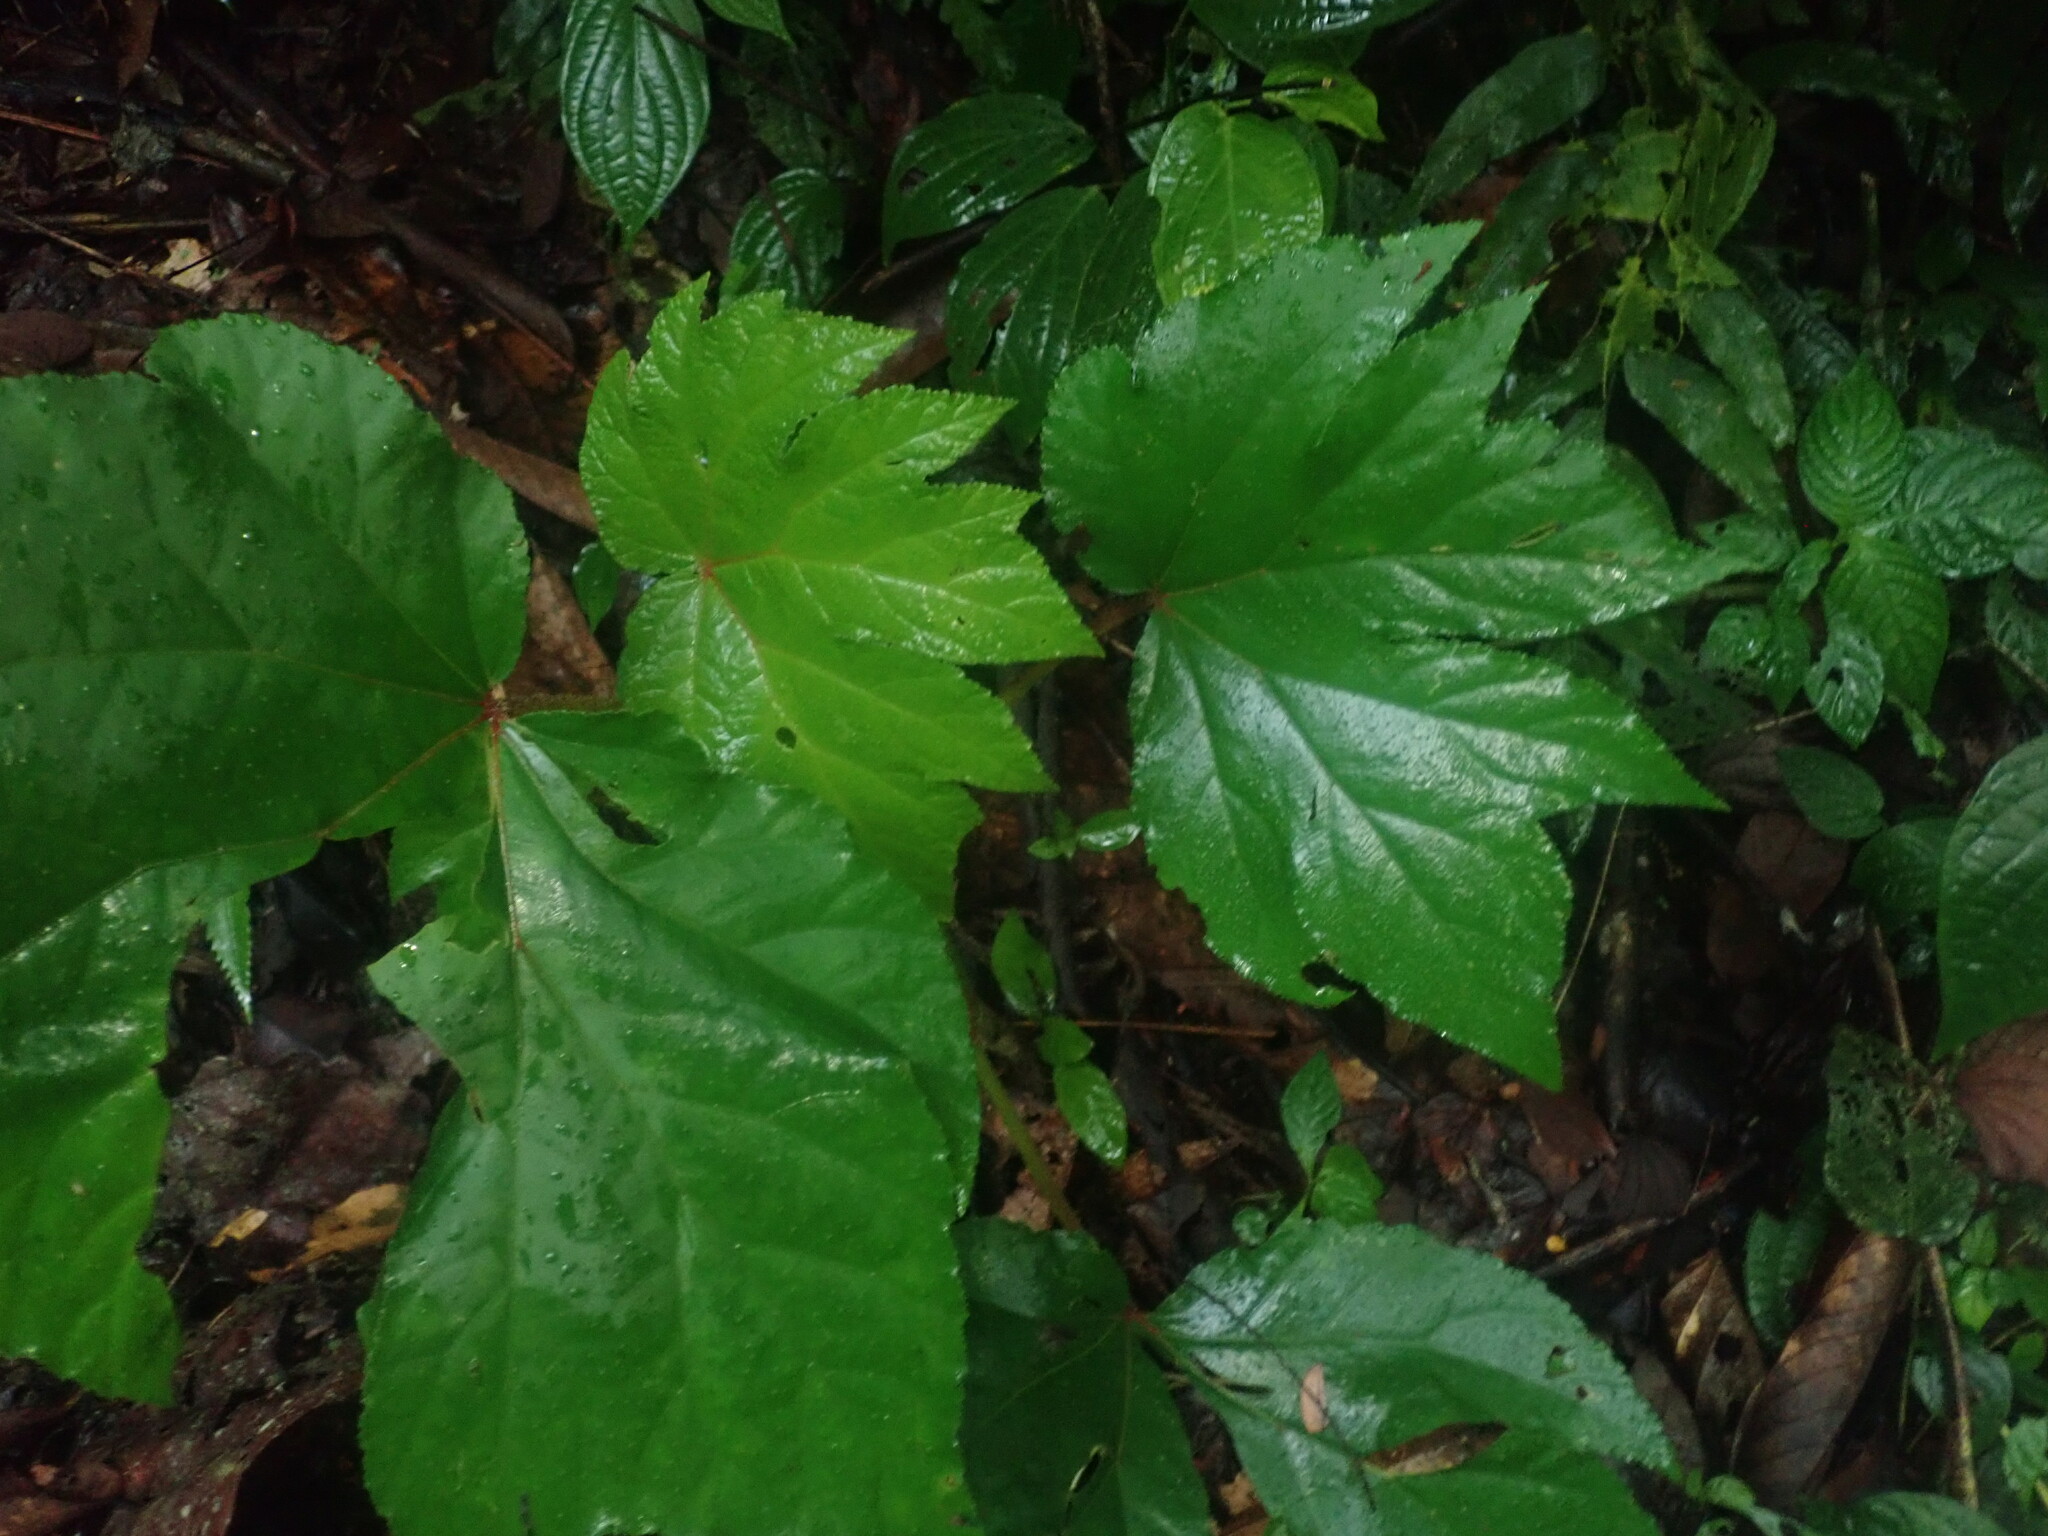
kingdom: Plantae
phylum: Tracheophyta
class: Magnoliopsida
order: Cucurbitales
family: Begoniaceae
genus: Begonia
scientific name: Begonia parviflora
